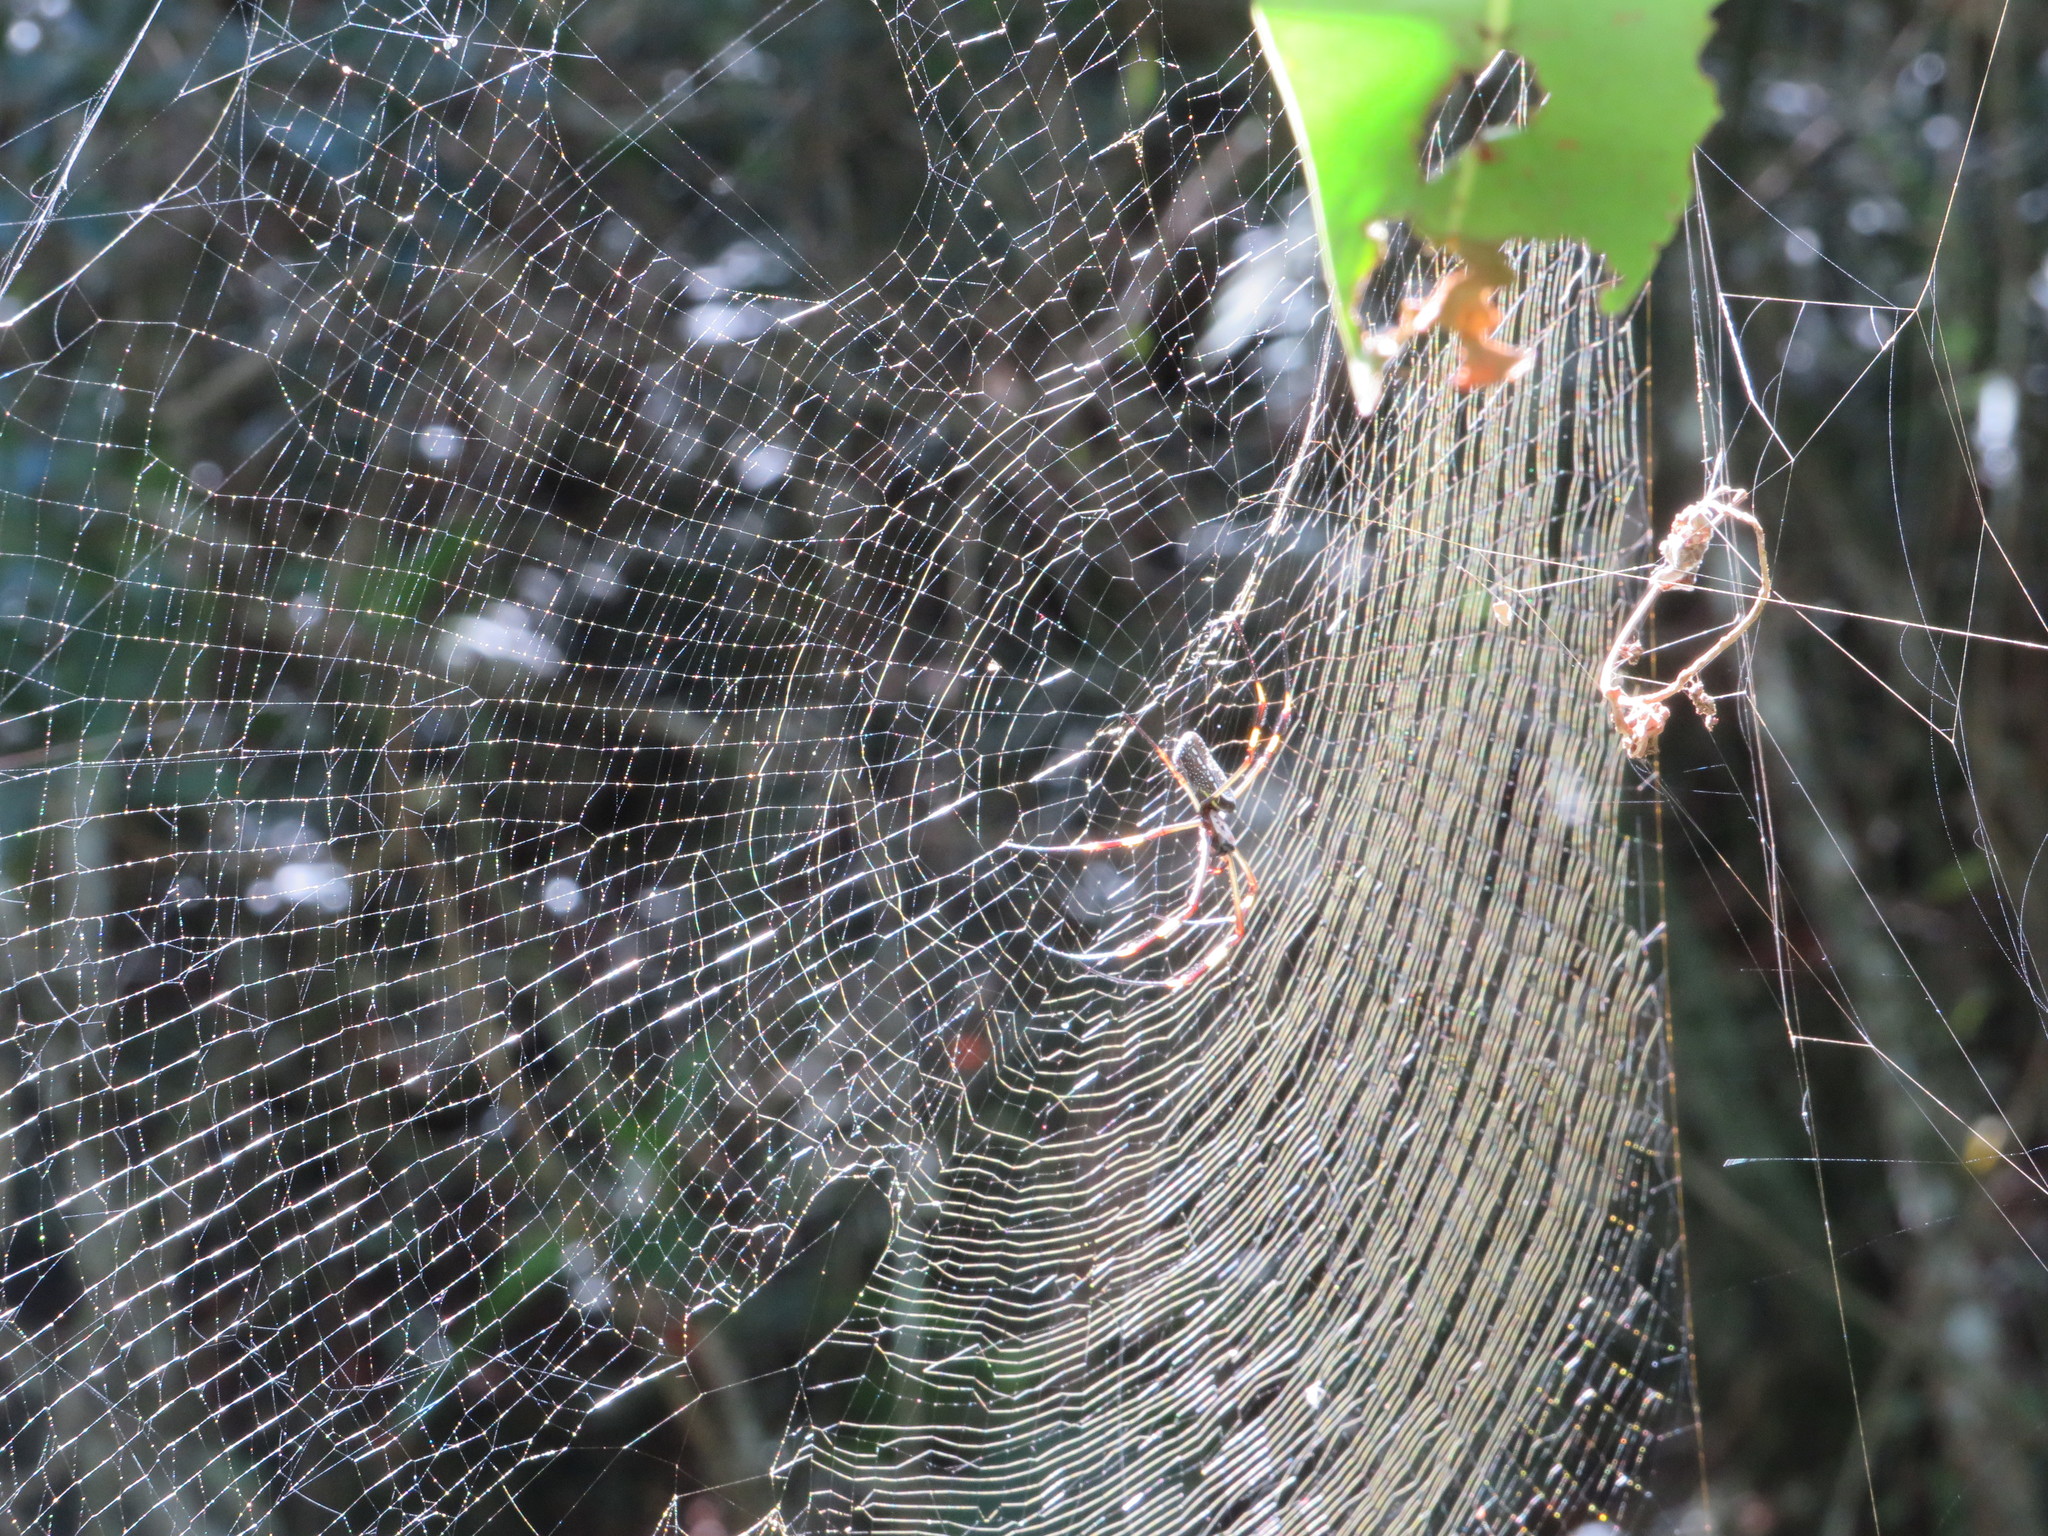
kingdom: Animalia
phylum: Arthropoda
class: Arachnida
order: Araneae
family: Araneidae
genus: Trichonephila
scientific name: Trichonephila clavipes
